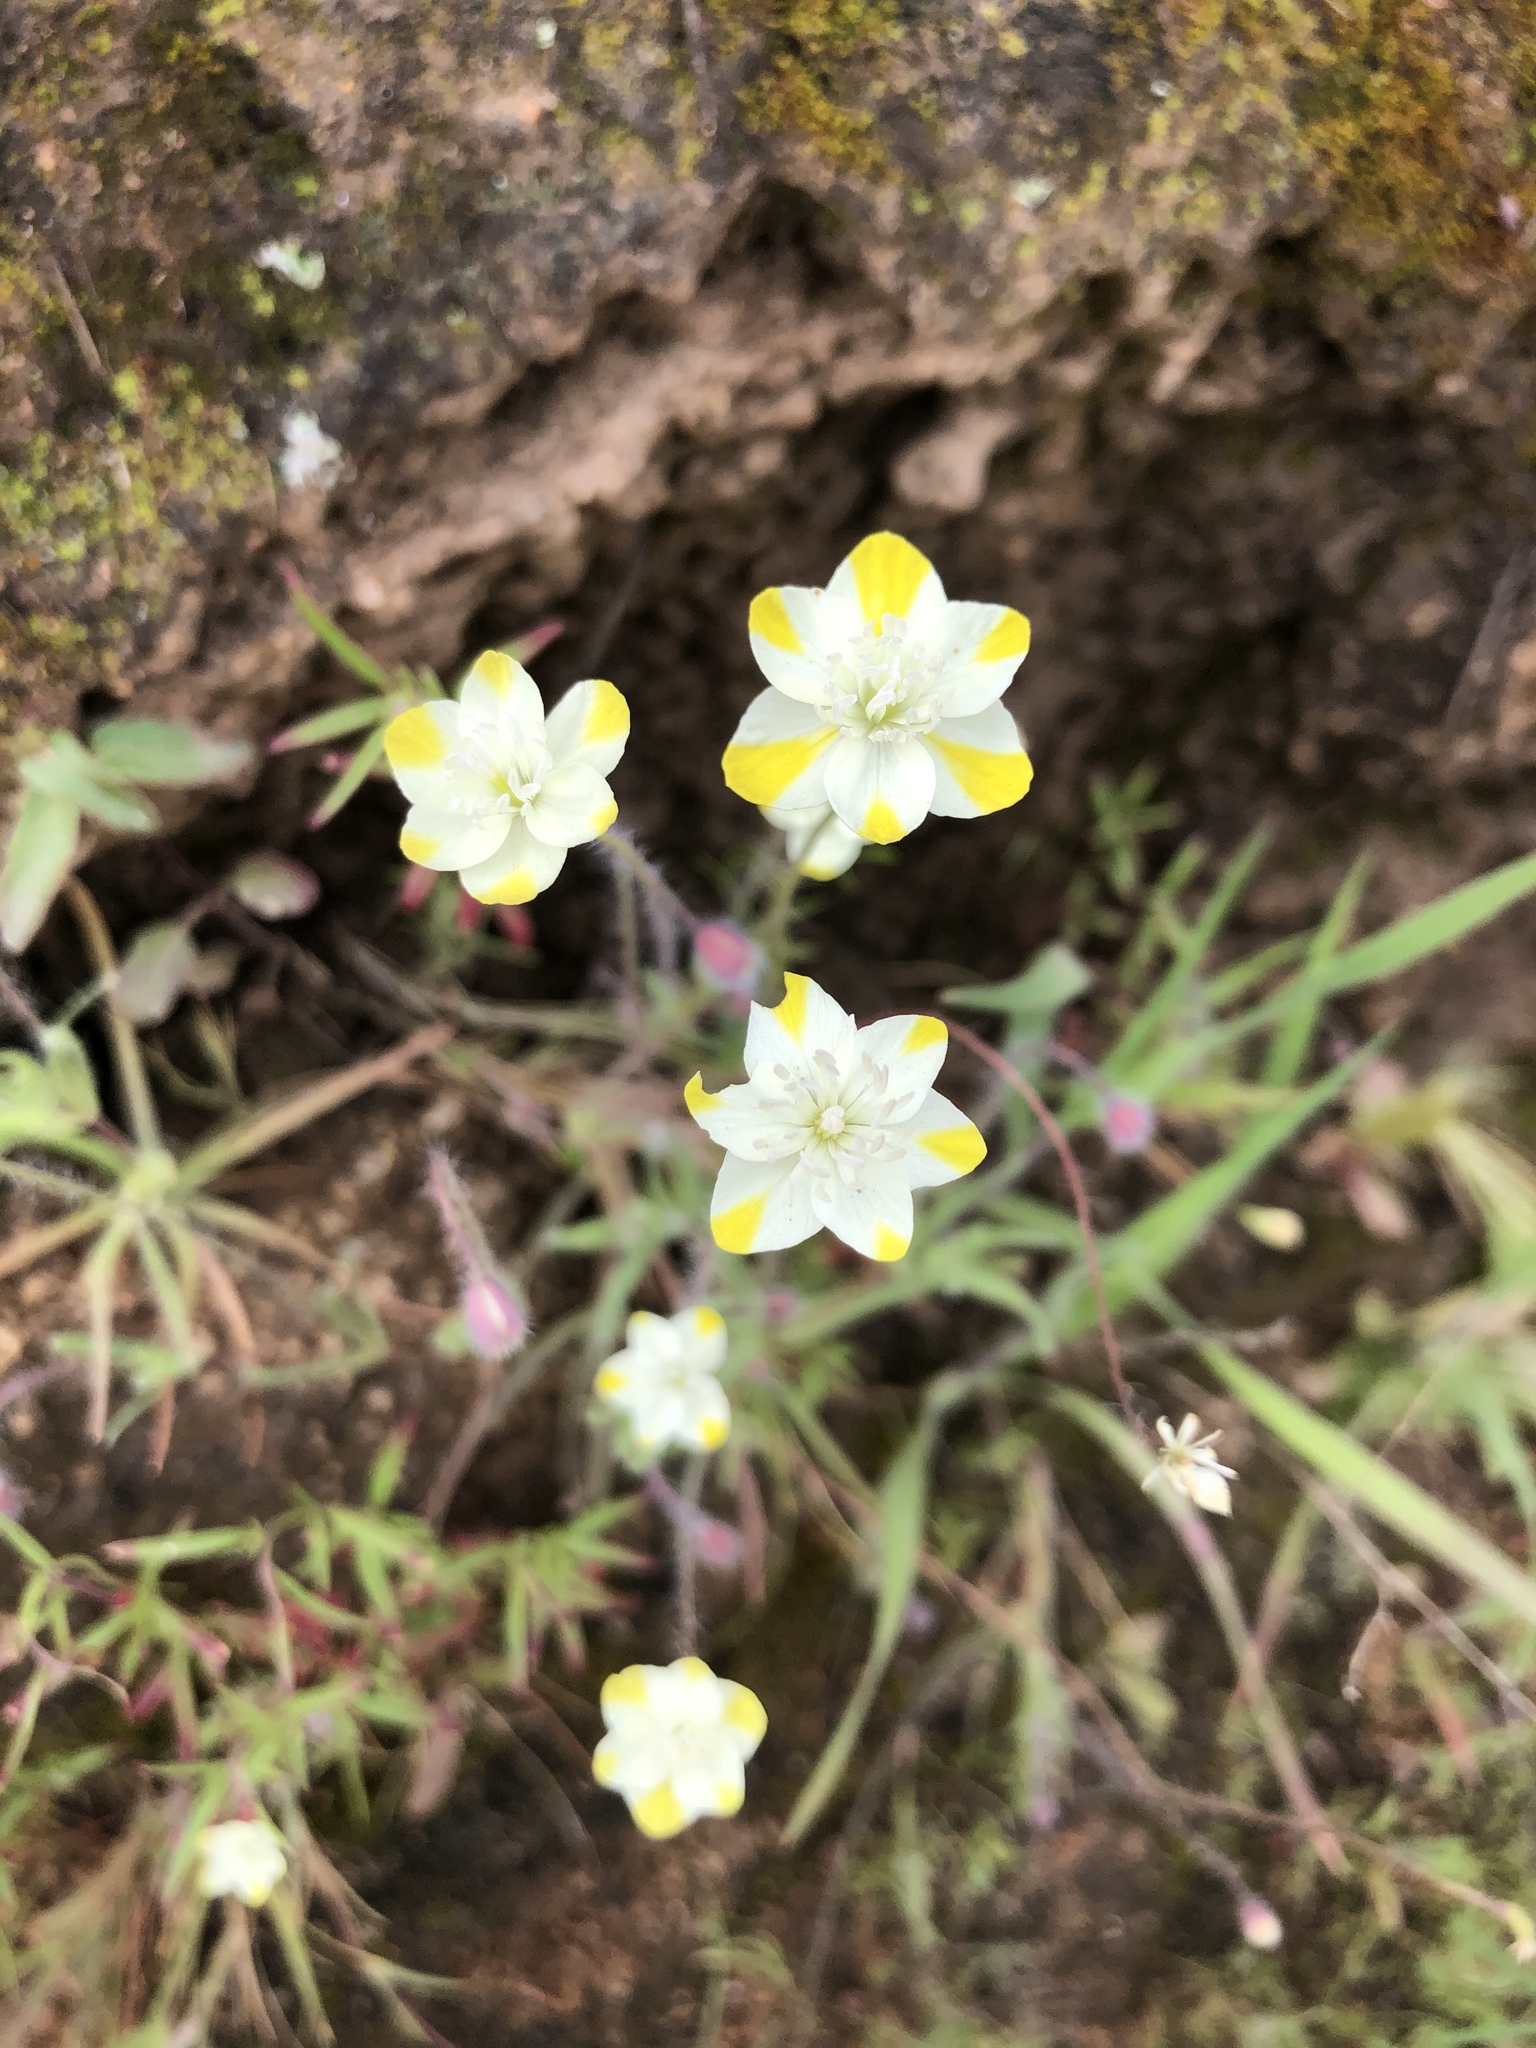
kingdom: Plantae
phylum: Tracheophyta
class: Magnoliopsida
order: Ranunculales
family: Papaveraceae
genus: Platystemon
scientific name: Platystemon californicus
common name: Cream-cups
